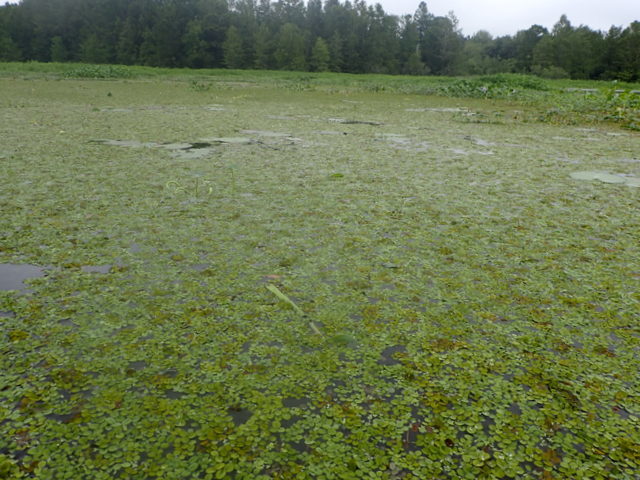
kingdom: Plantae
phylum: Tracheophyta
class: Polypodiopsida
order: Salviniales
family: Salviniaceae
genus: Salvinia
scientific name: Salvinia minima
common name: Water spangles
